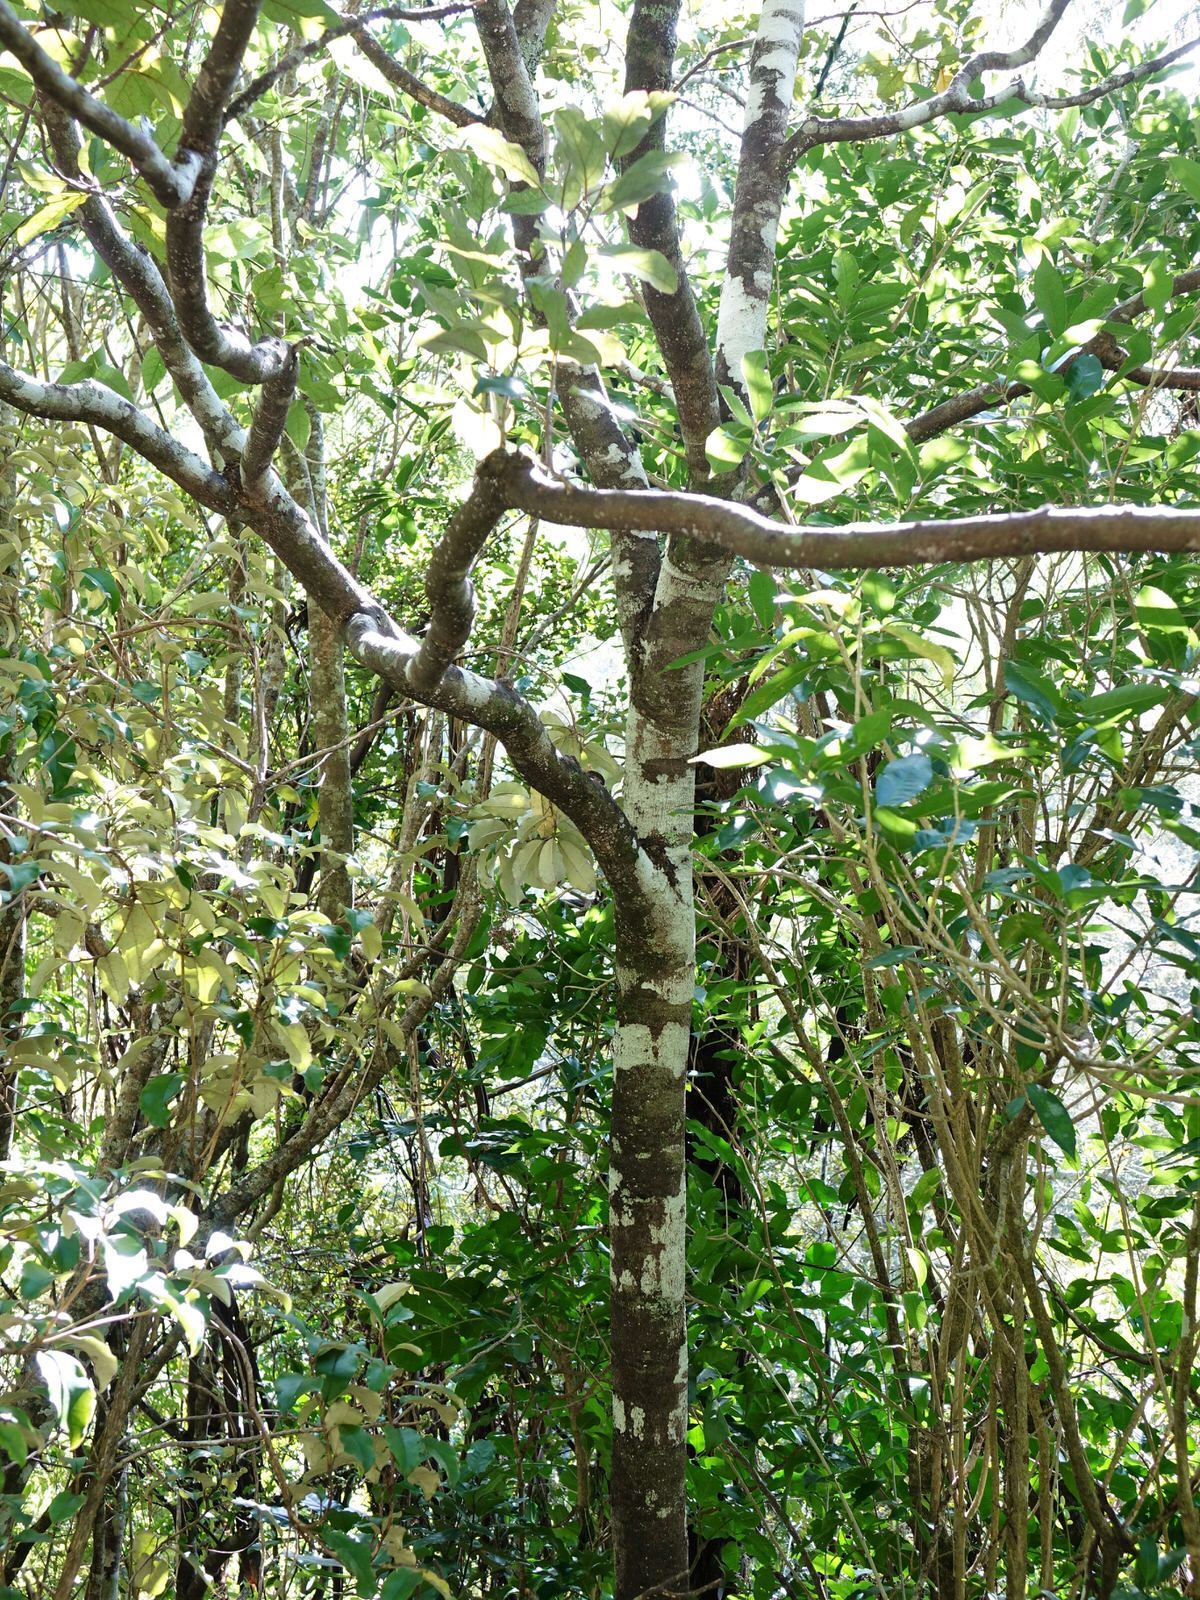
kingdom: Plantae
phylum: Tracheophyta
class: Magnoliopsida
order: Laurales
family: Lauraceae
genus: Litsea
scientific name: Litsea calicaris
